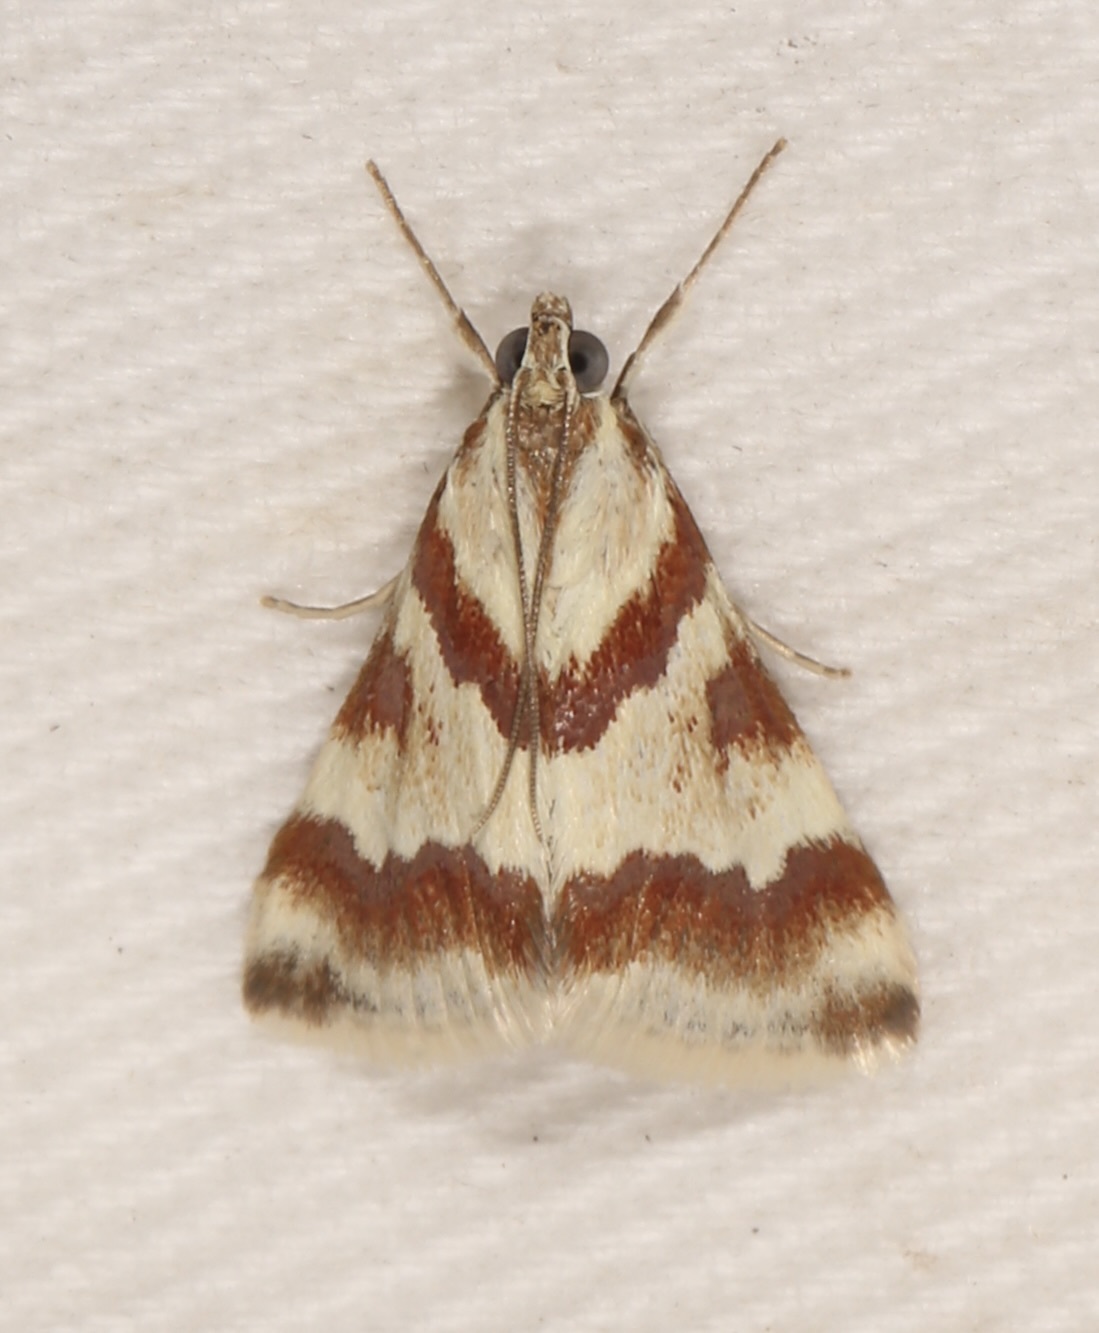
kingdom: Animalia
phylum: Arthropoda
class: Insecta
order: Lepidoptera
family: Crambidae
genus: Noctuelia
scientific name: Noctuelia Mimoschinia rufofascialis
